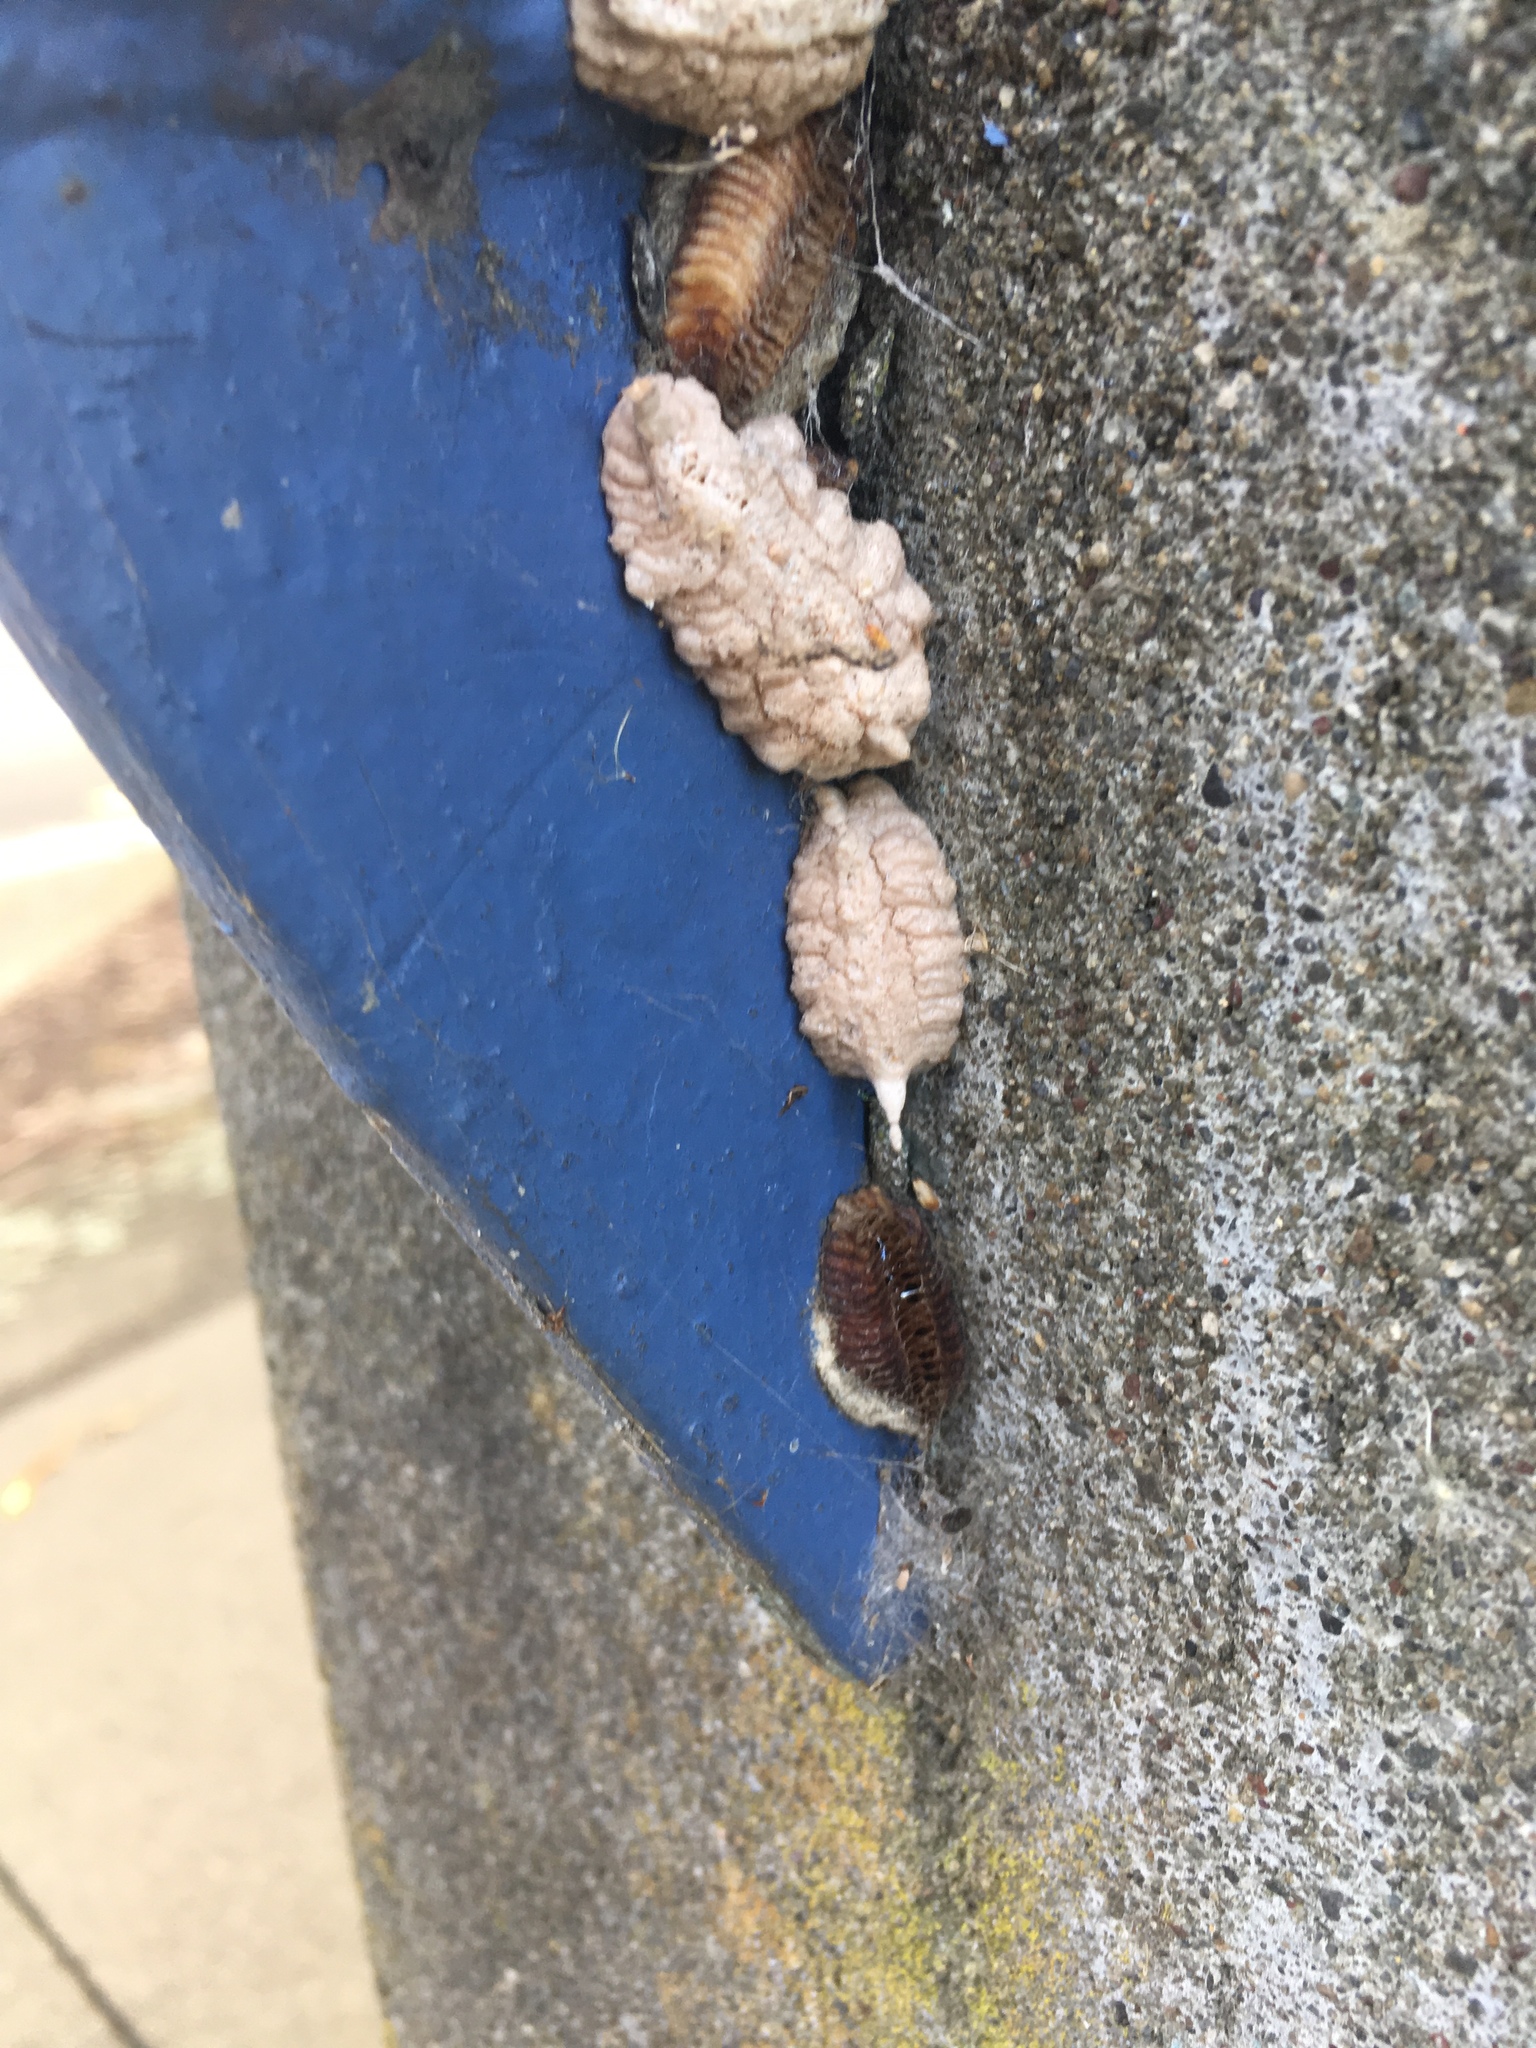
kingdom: Animalia
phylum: Arthropoda
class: Insecta
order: Mantodea
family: Miomantidae
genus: Miomantis
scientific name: Miomantis caffra
